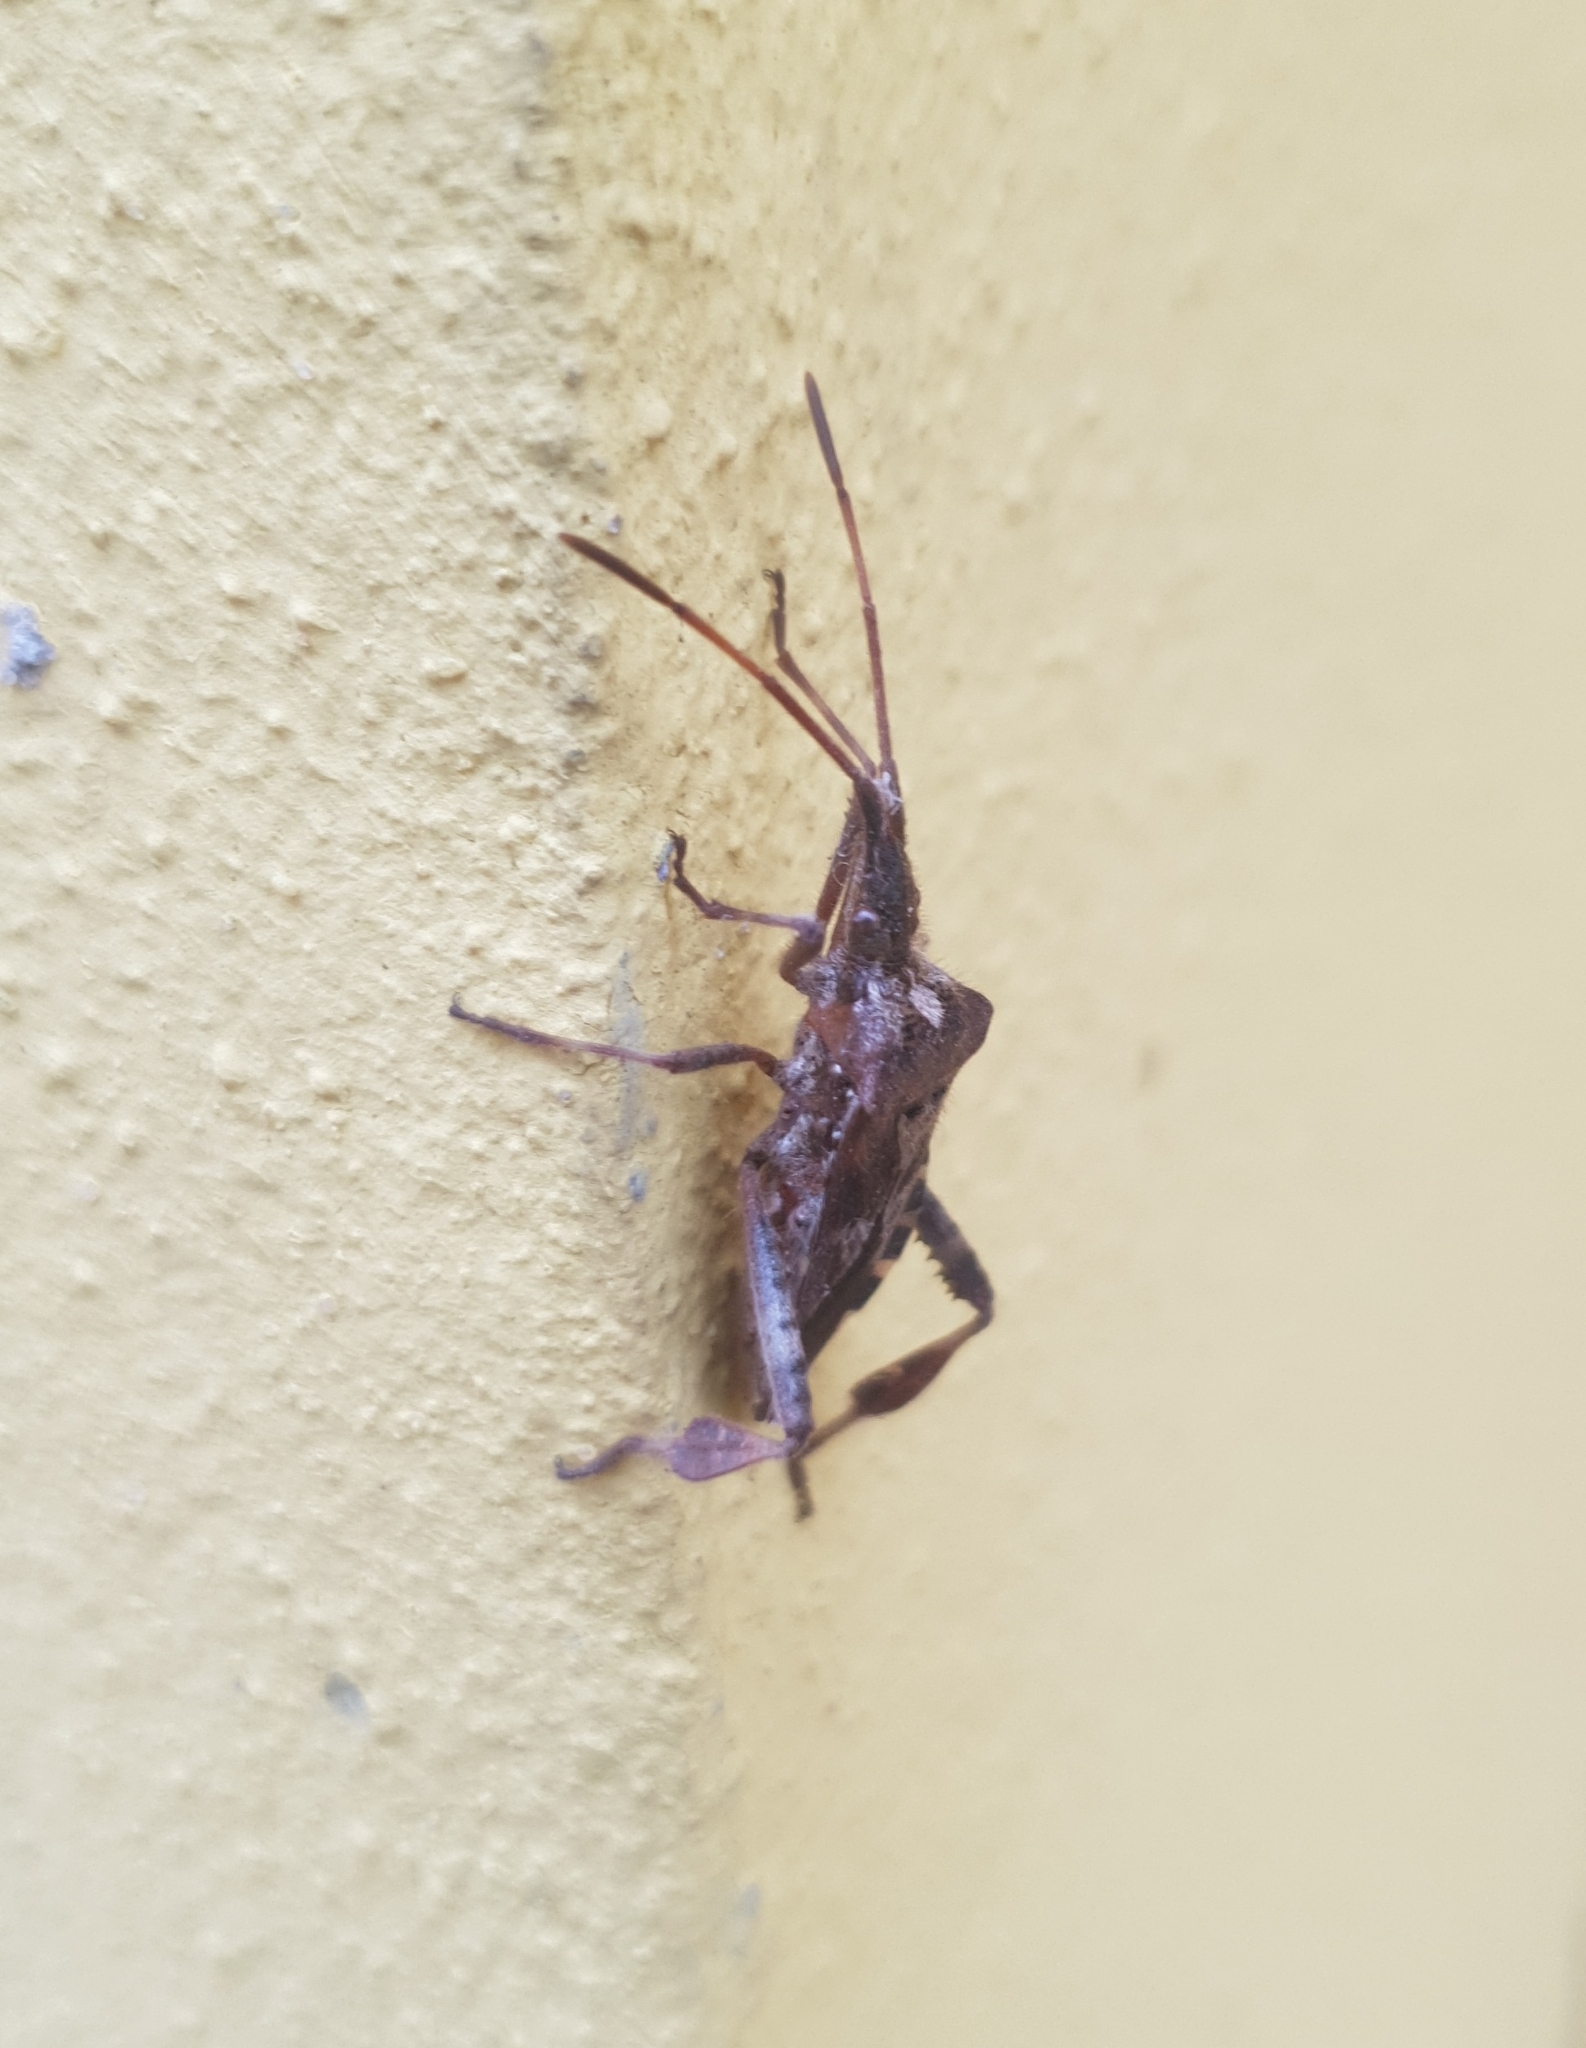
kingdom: Animalia
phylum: Arthropoda
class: Insecta
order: Hemiptera
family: Coreidae
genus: Leptoglossus
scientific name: Leptoglossus occidentalis
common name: Western conifer-seed bug
